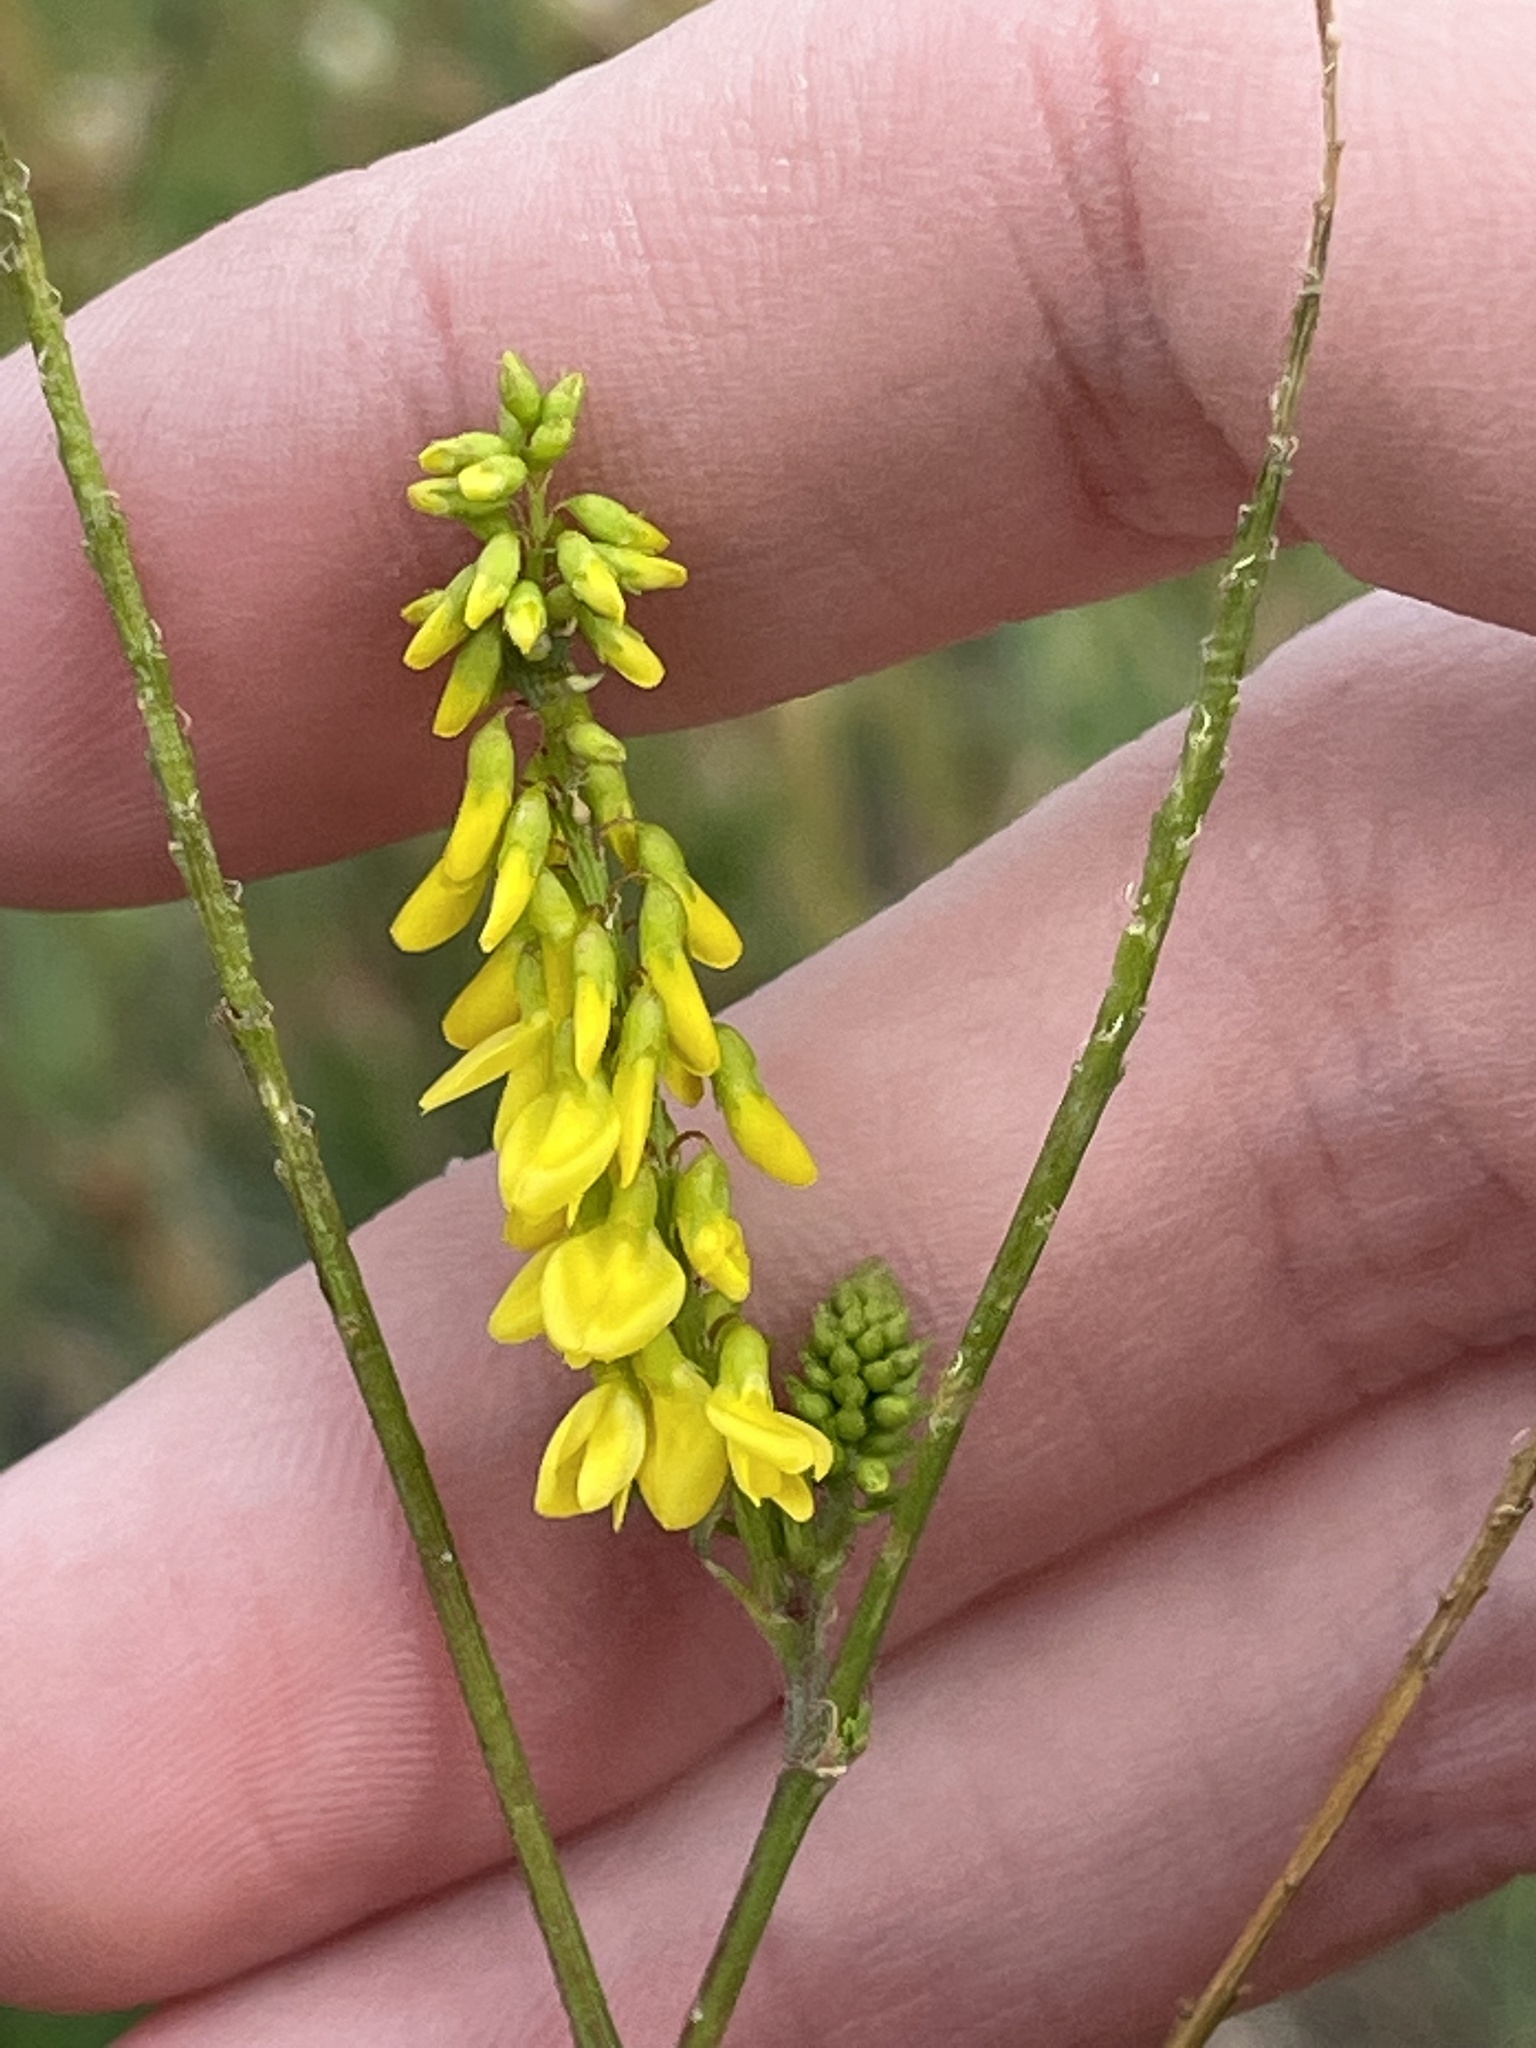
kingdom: Plantae
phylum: Tracheophyta
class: Magnoliopsida
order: Fabales
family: Fabaceae
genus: Melilotus
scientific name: Melilotus officinalis
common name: Sweetclover
